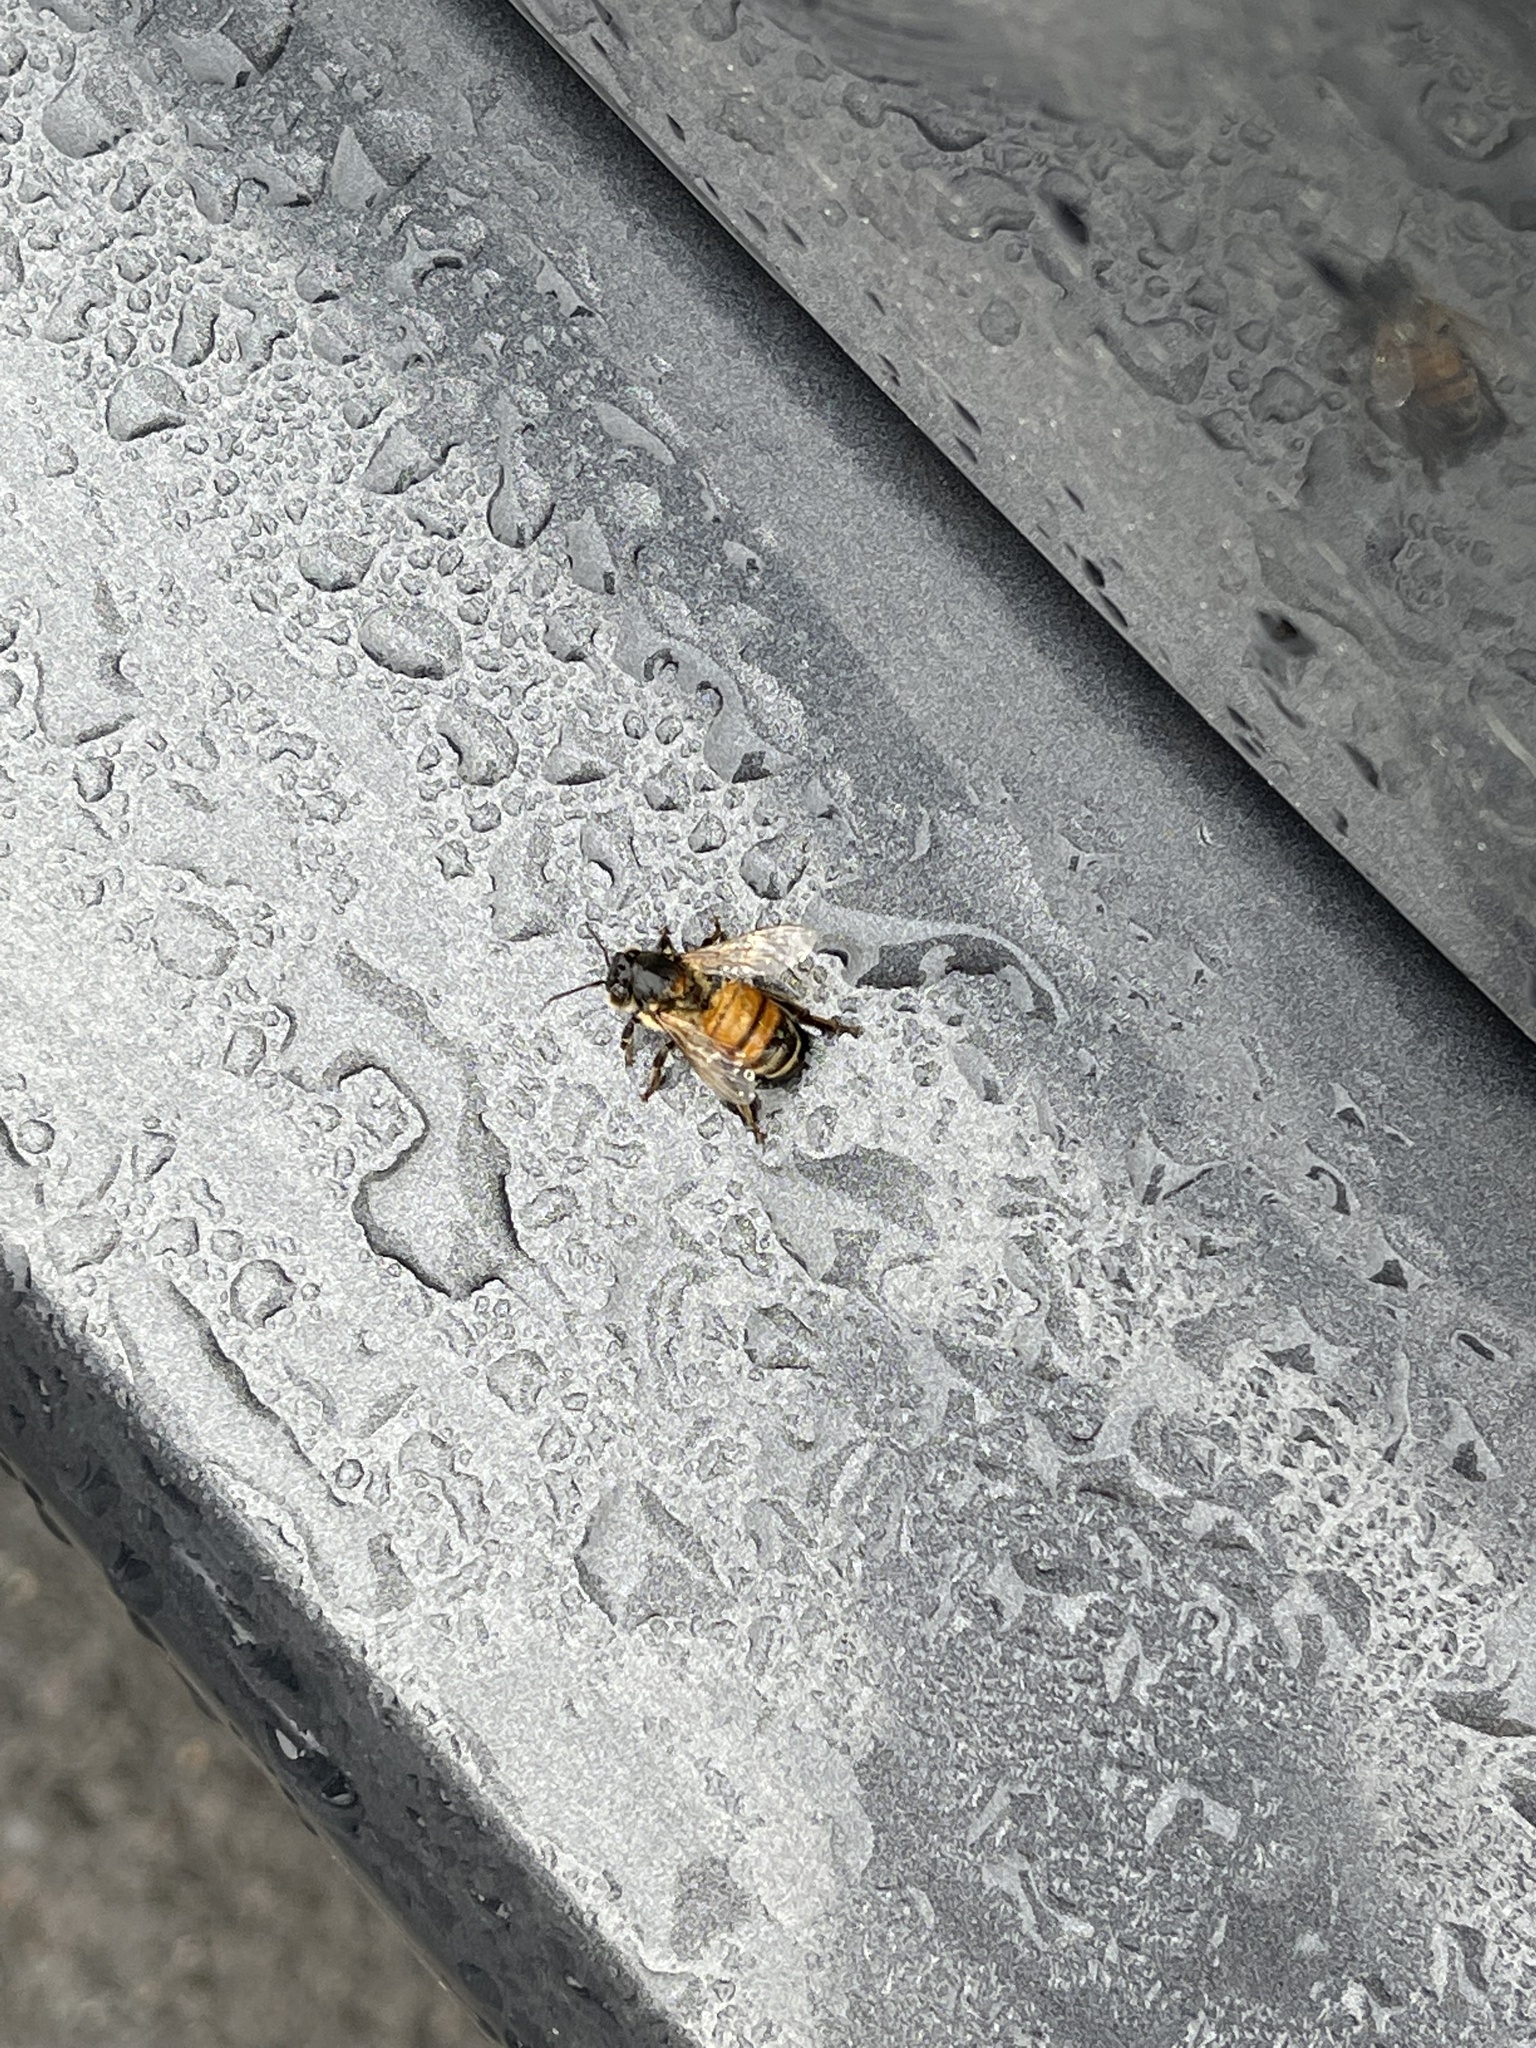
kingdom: Animalia
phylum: Arthropoda
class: Insecta
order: Hymenoptera
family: Apidae
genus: Apis
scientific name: Apis mellifera
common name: Honey bee
